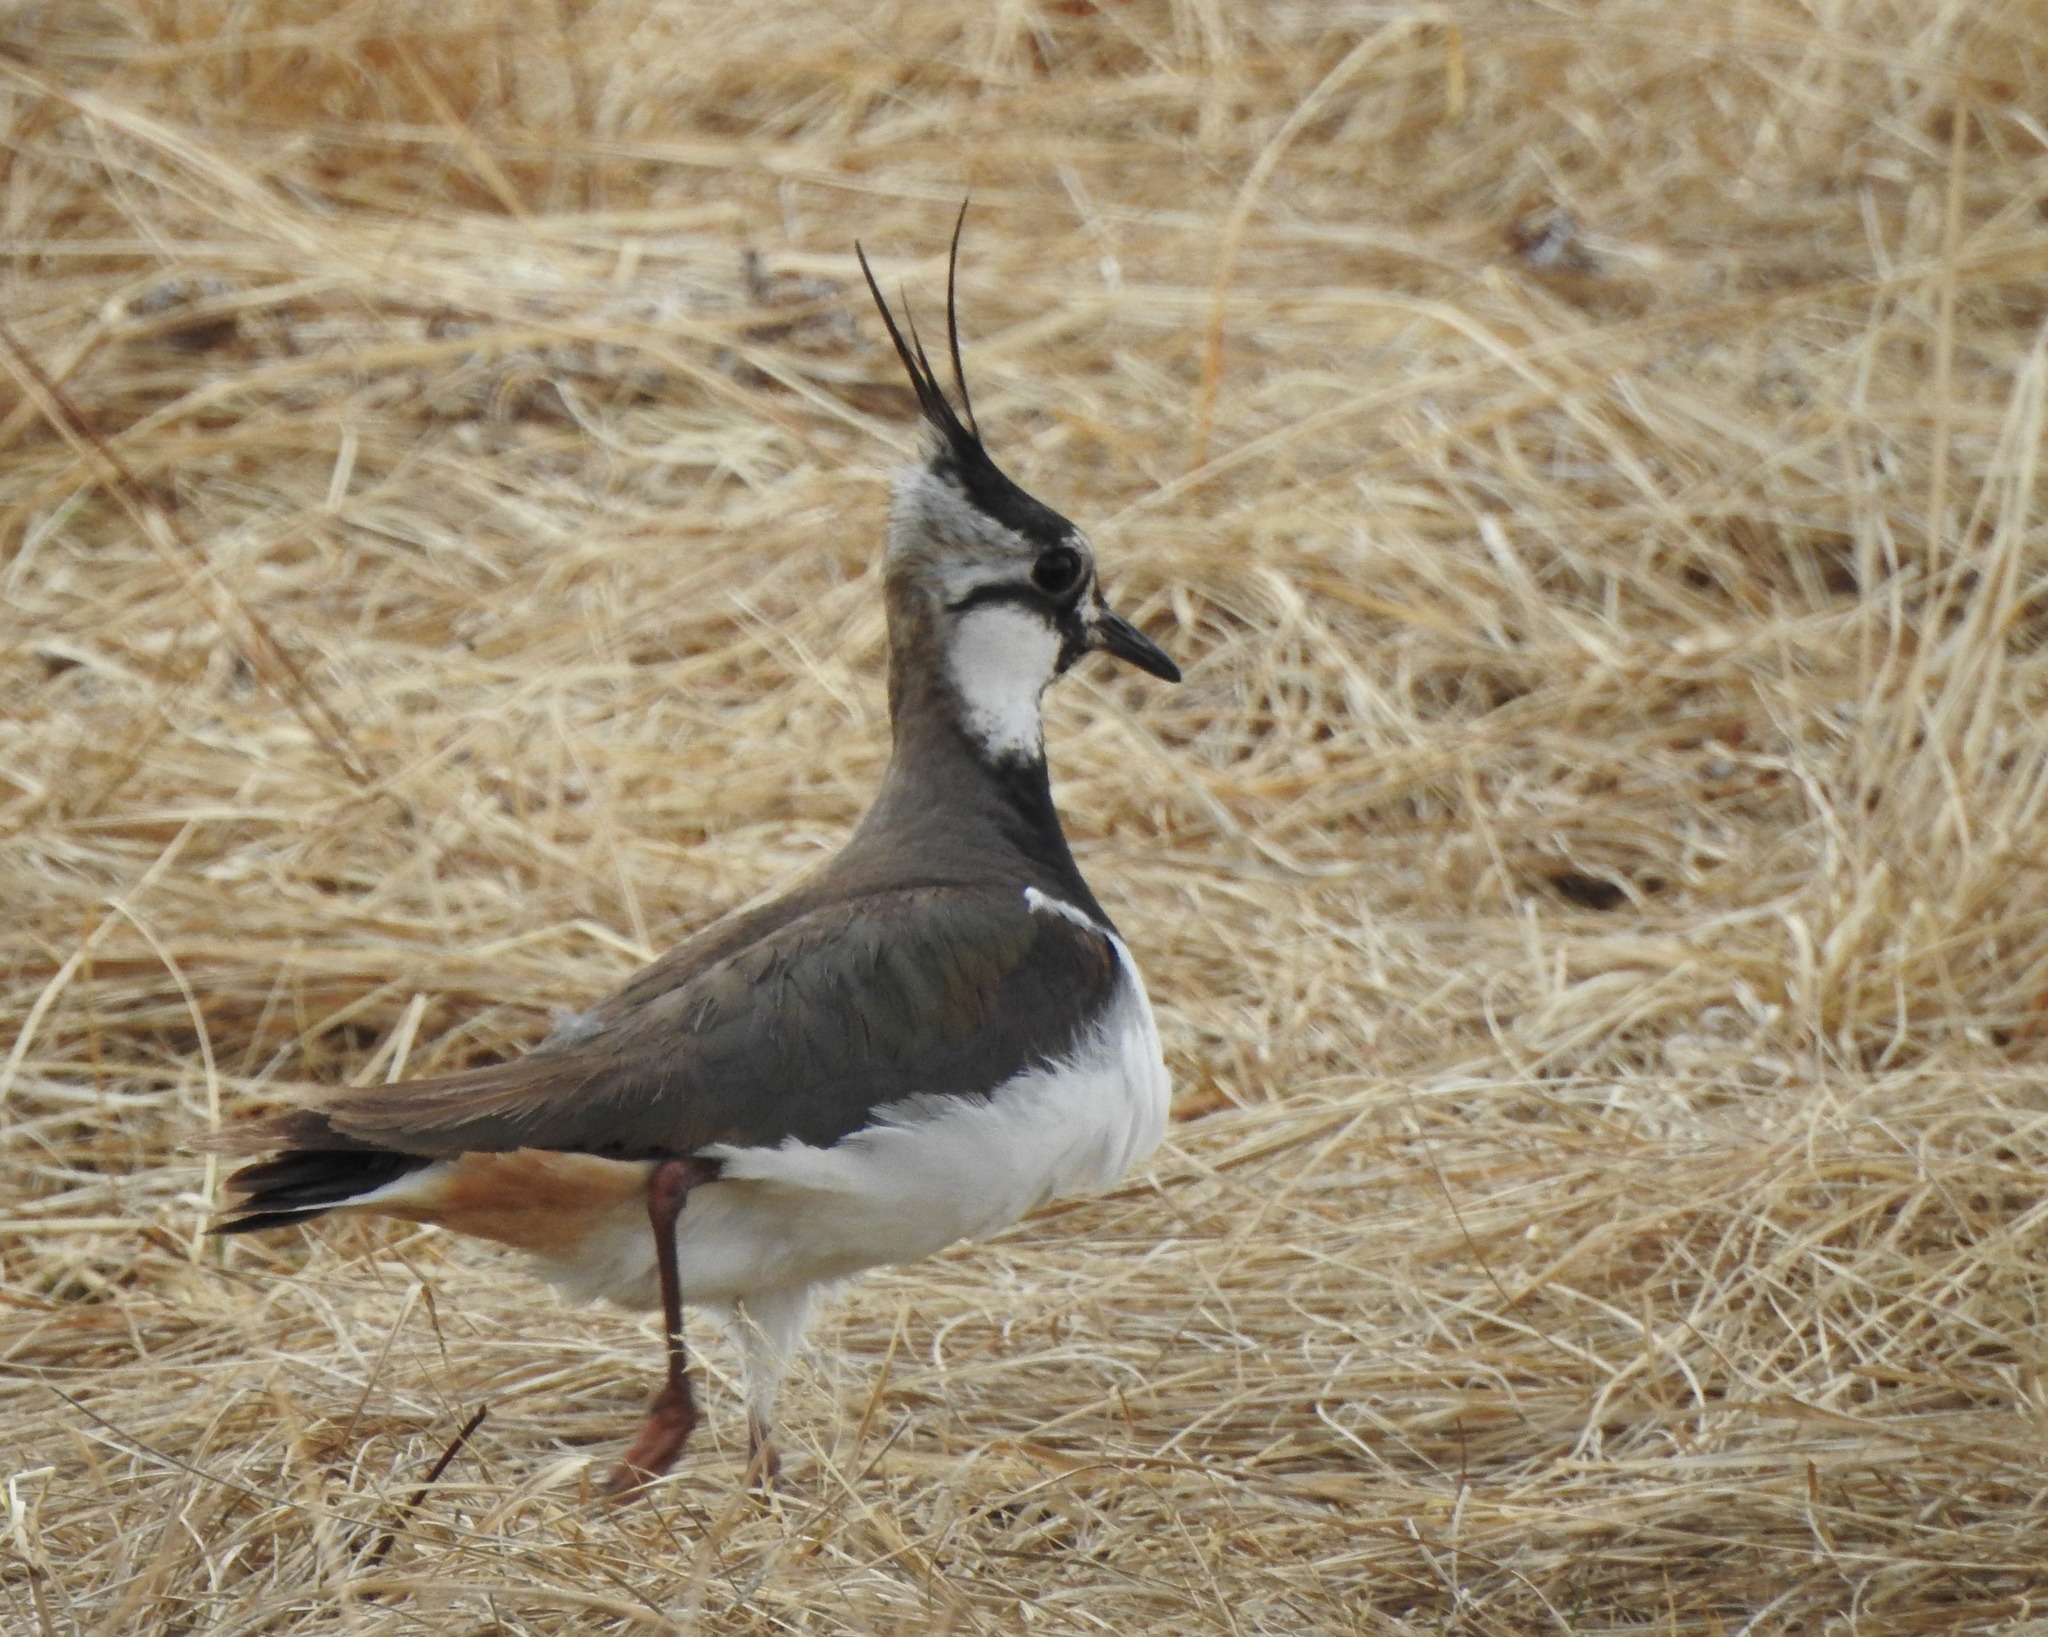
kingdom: Animalia
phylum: Chordata
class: Aves
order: Charadriiformes
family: Charadriidae
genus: Vanellus
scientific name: Vanellus vanellus
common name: Northern lapwing
